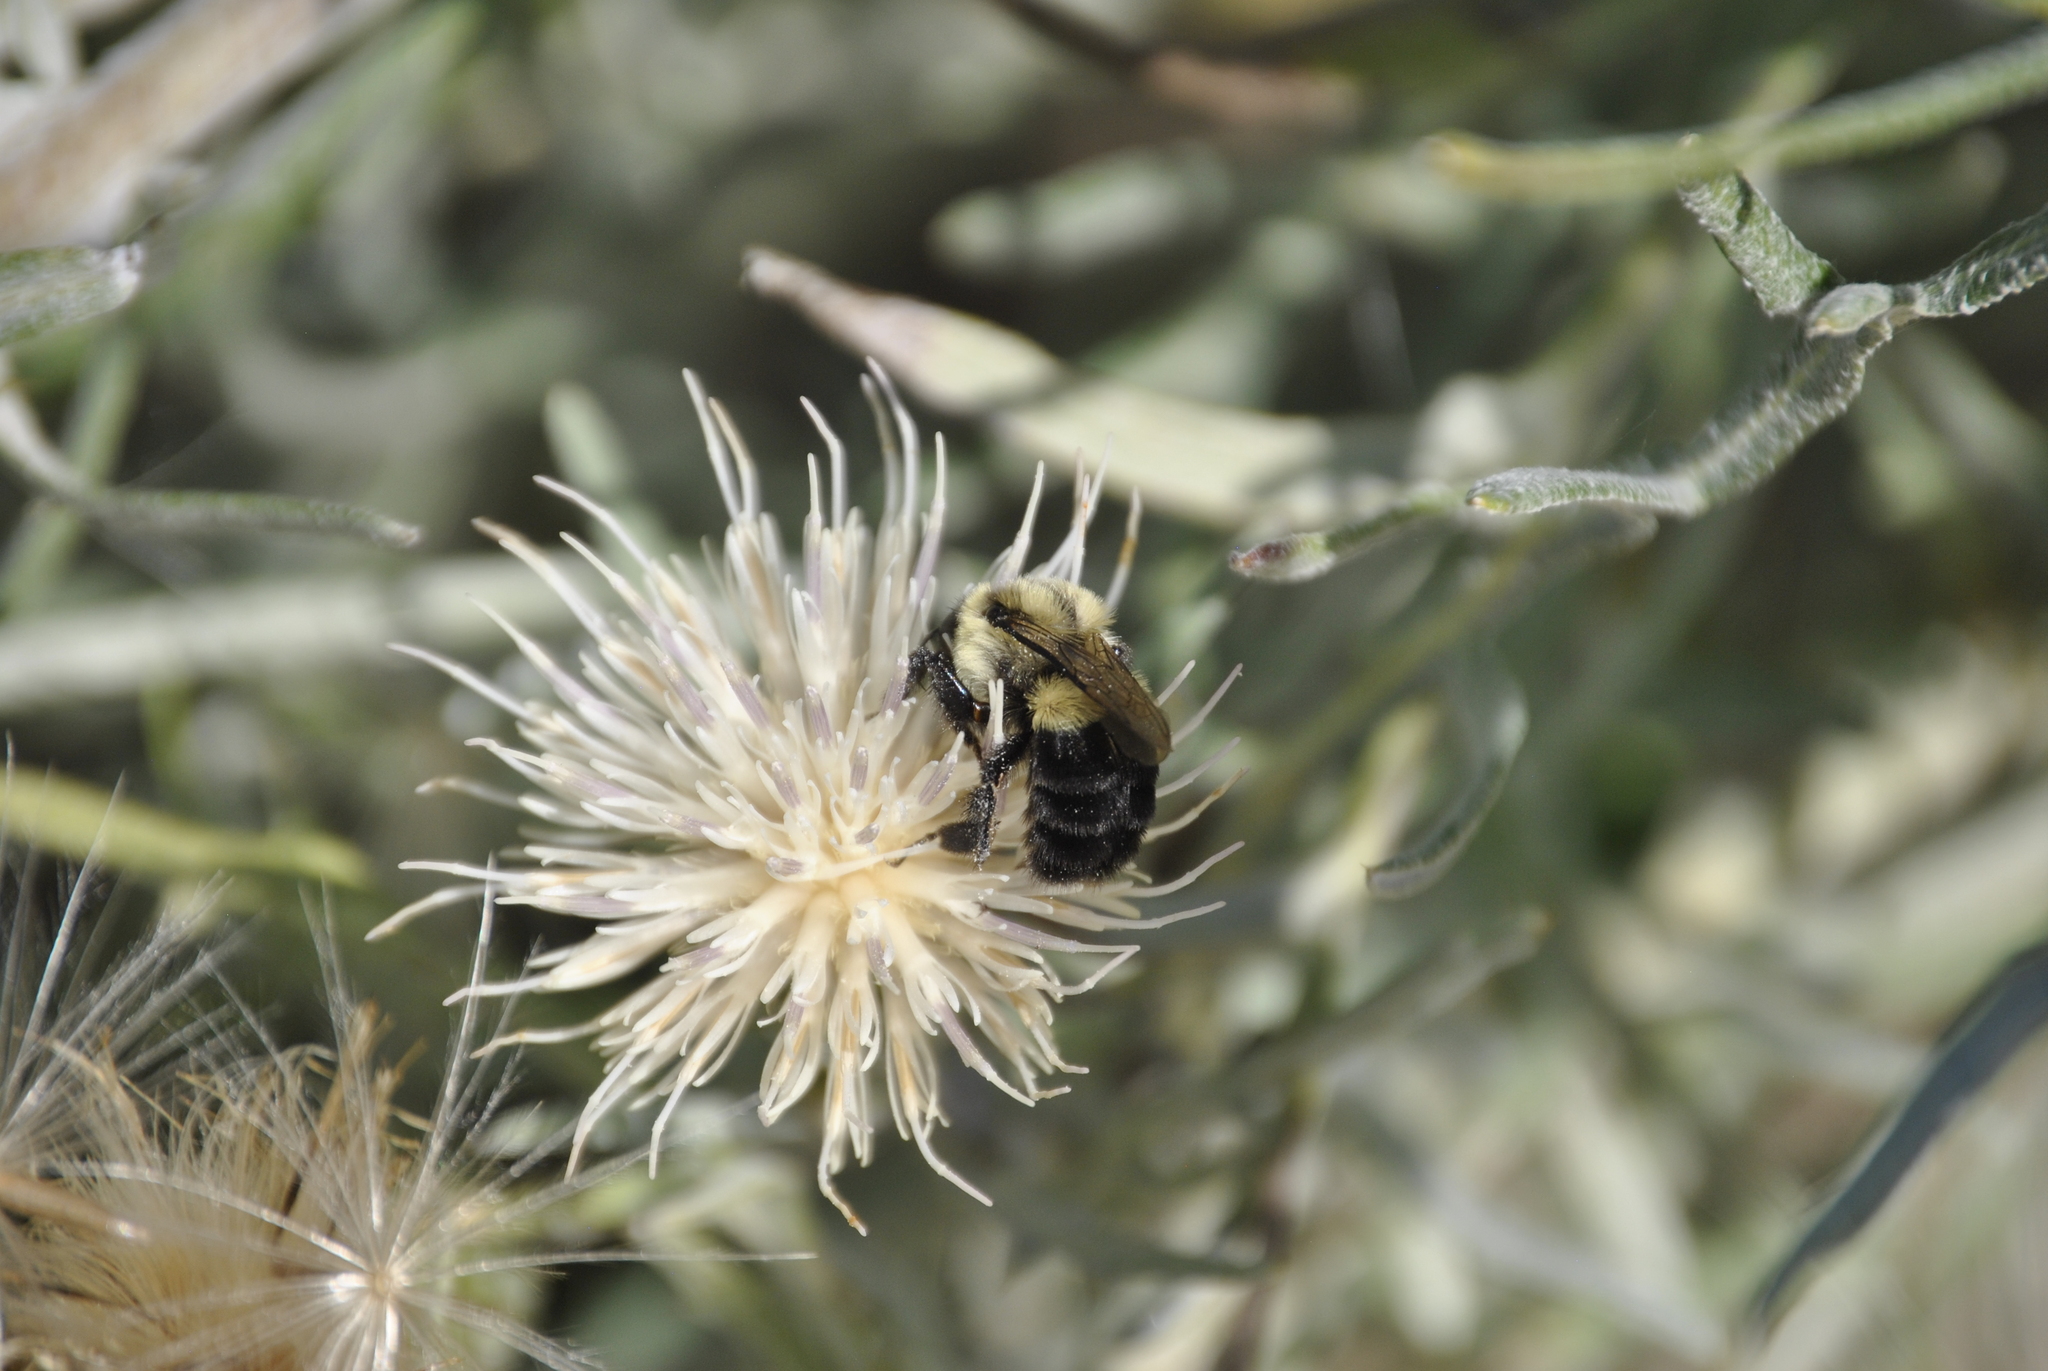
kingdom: Animalia
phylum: Arthropoda
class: Insecta
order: Hymenoptera
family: Apidae
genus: Bombus
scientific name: Bombus impatiens
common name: Common eastern bumble bee
